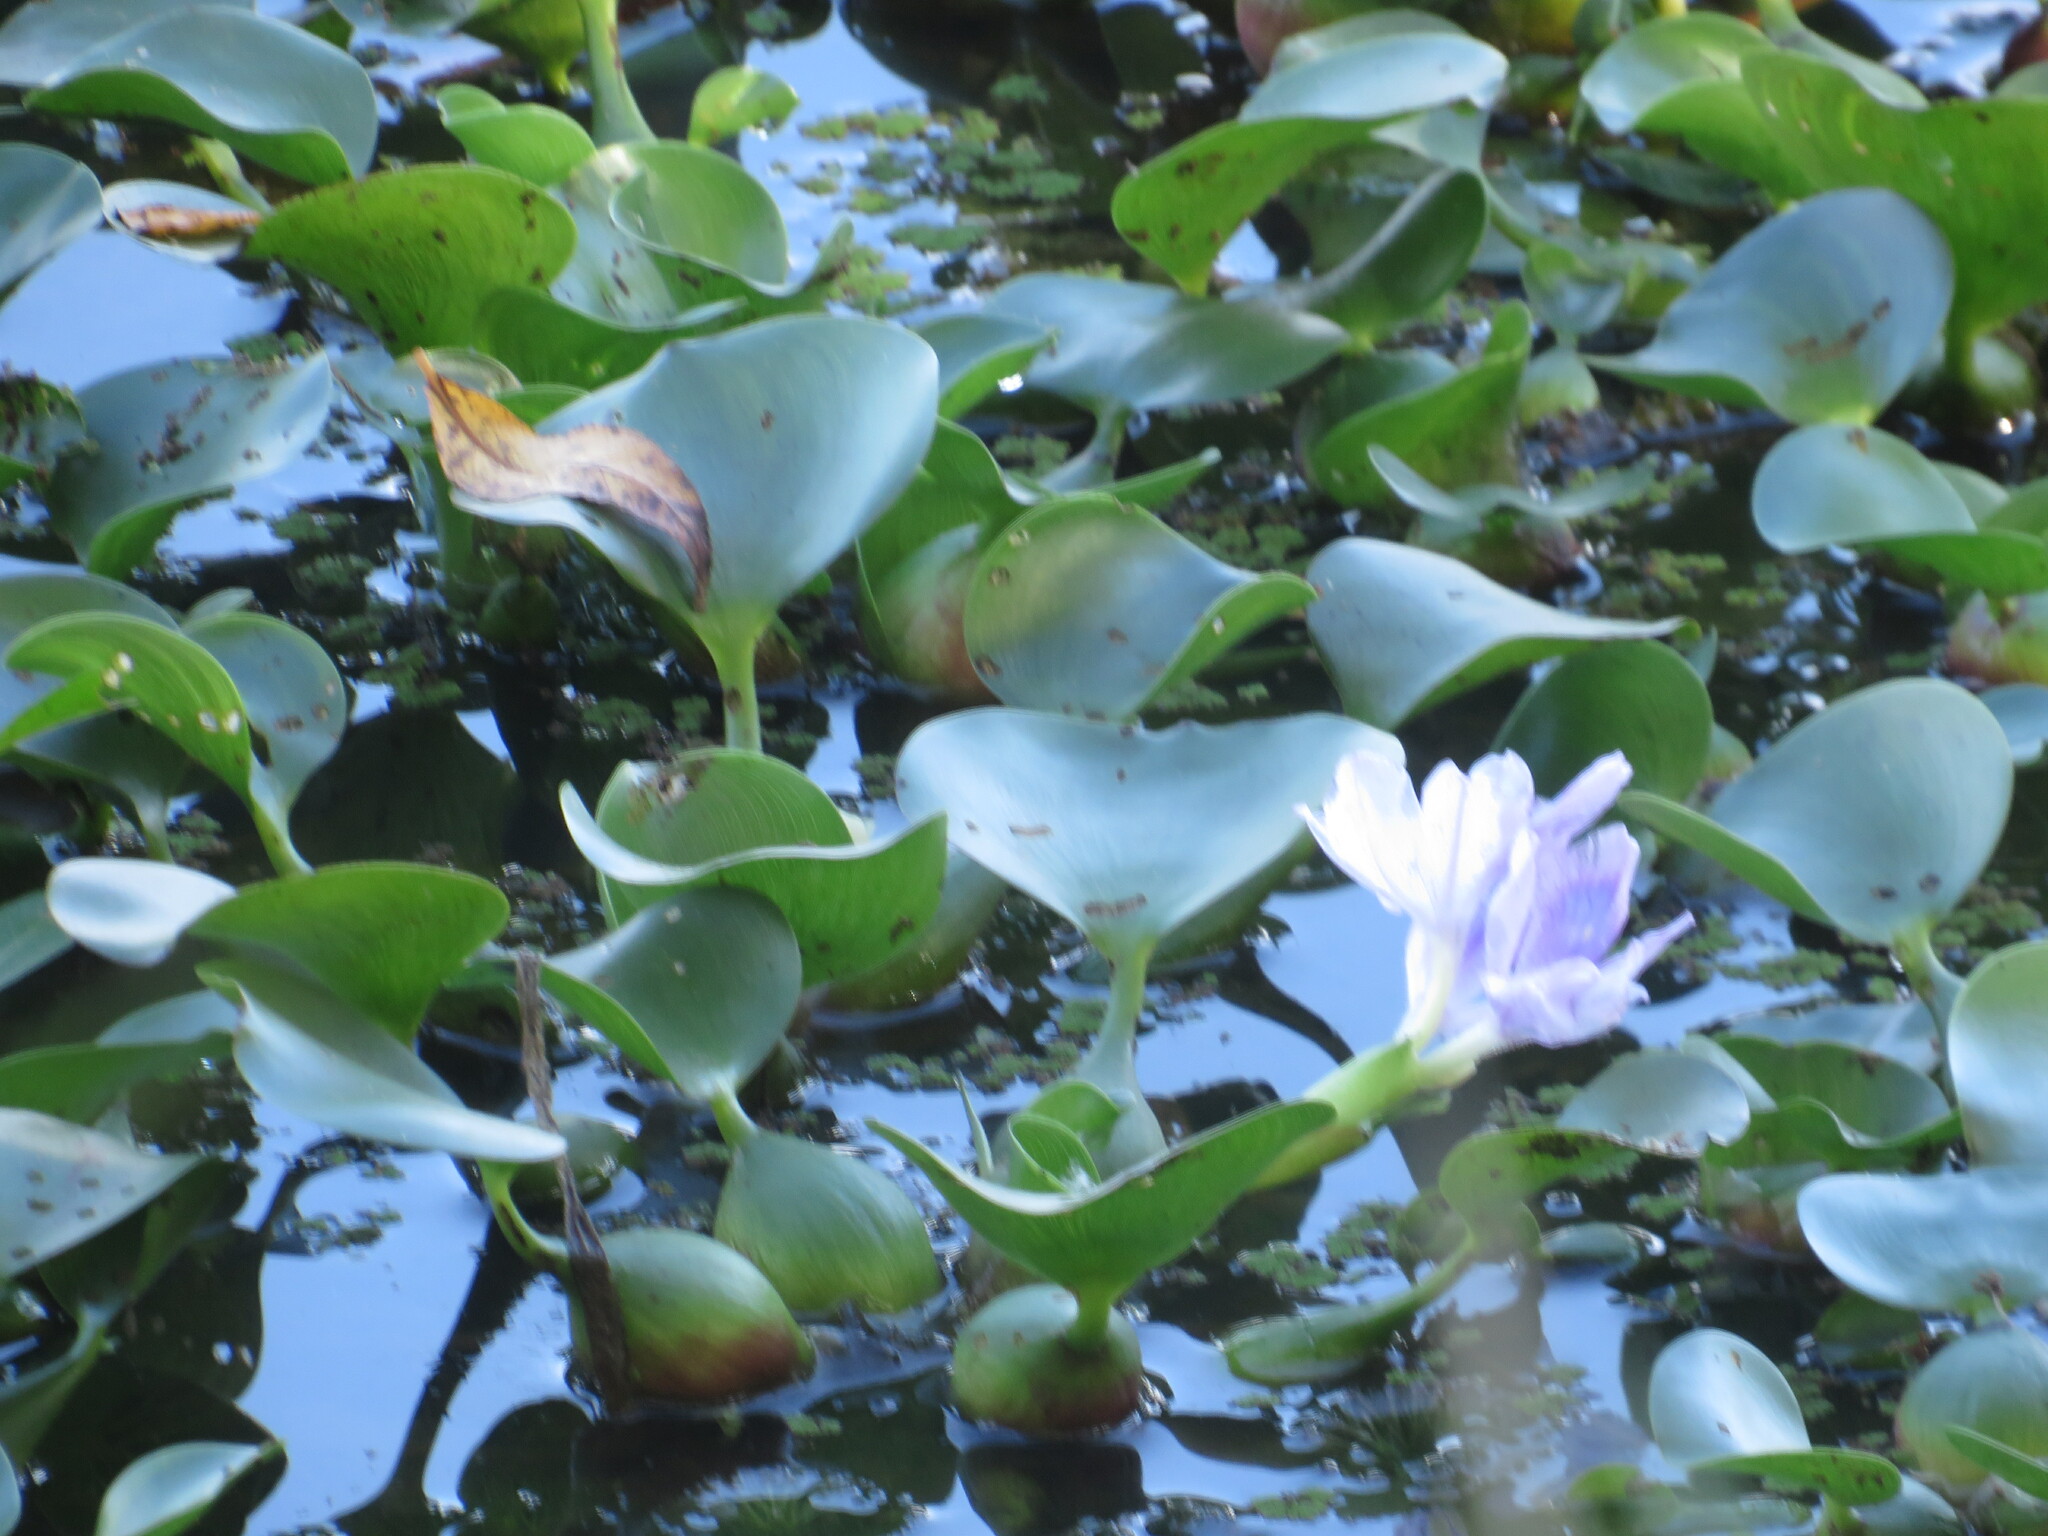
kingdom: Plantae
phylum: Tracheophyta
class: Liliopsida
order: Commelinales
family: Pontederiaceae
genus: Pontederia
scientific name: Pontederia crassipes
